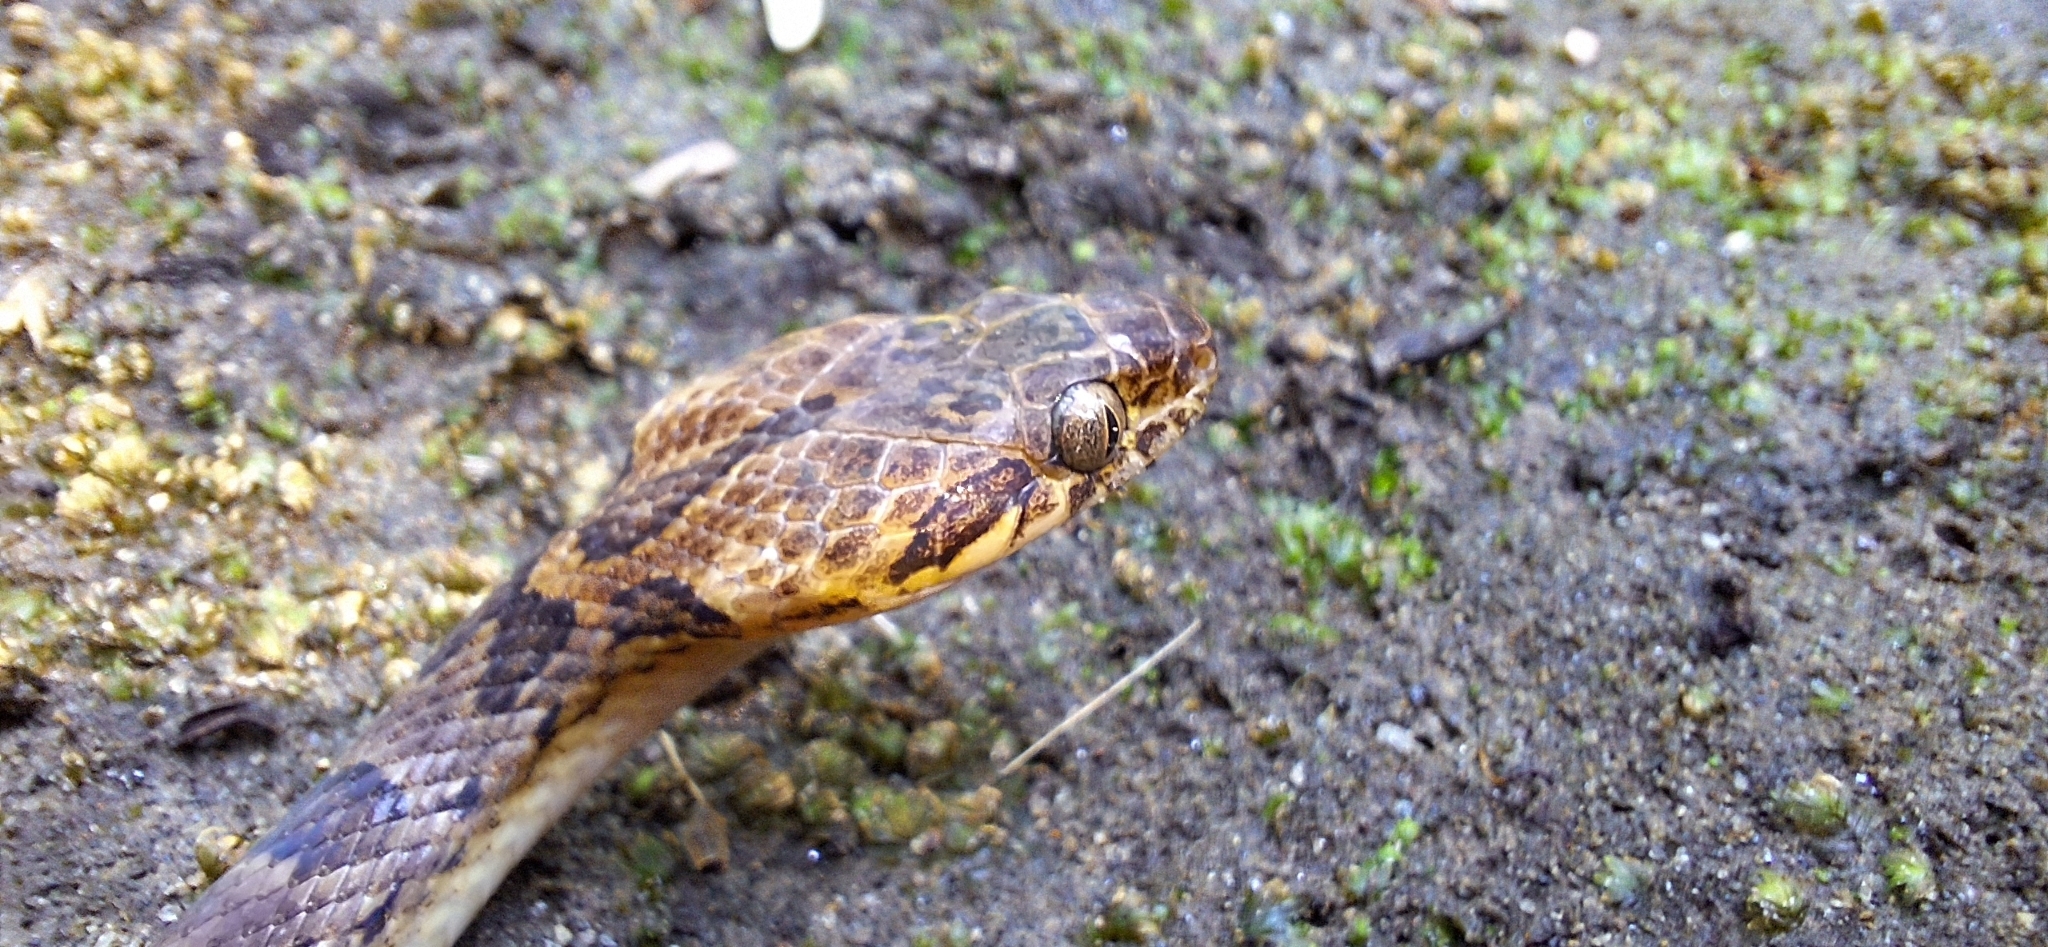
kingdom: Animalia
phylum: Chordata
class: Squamata
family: Colubridae
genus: Leptodeira
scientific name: Leptodeira rhombifera
